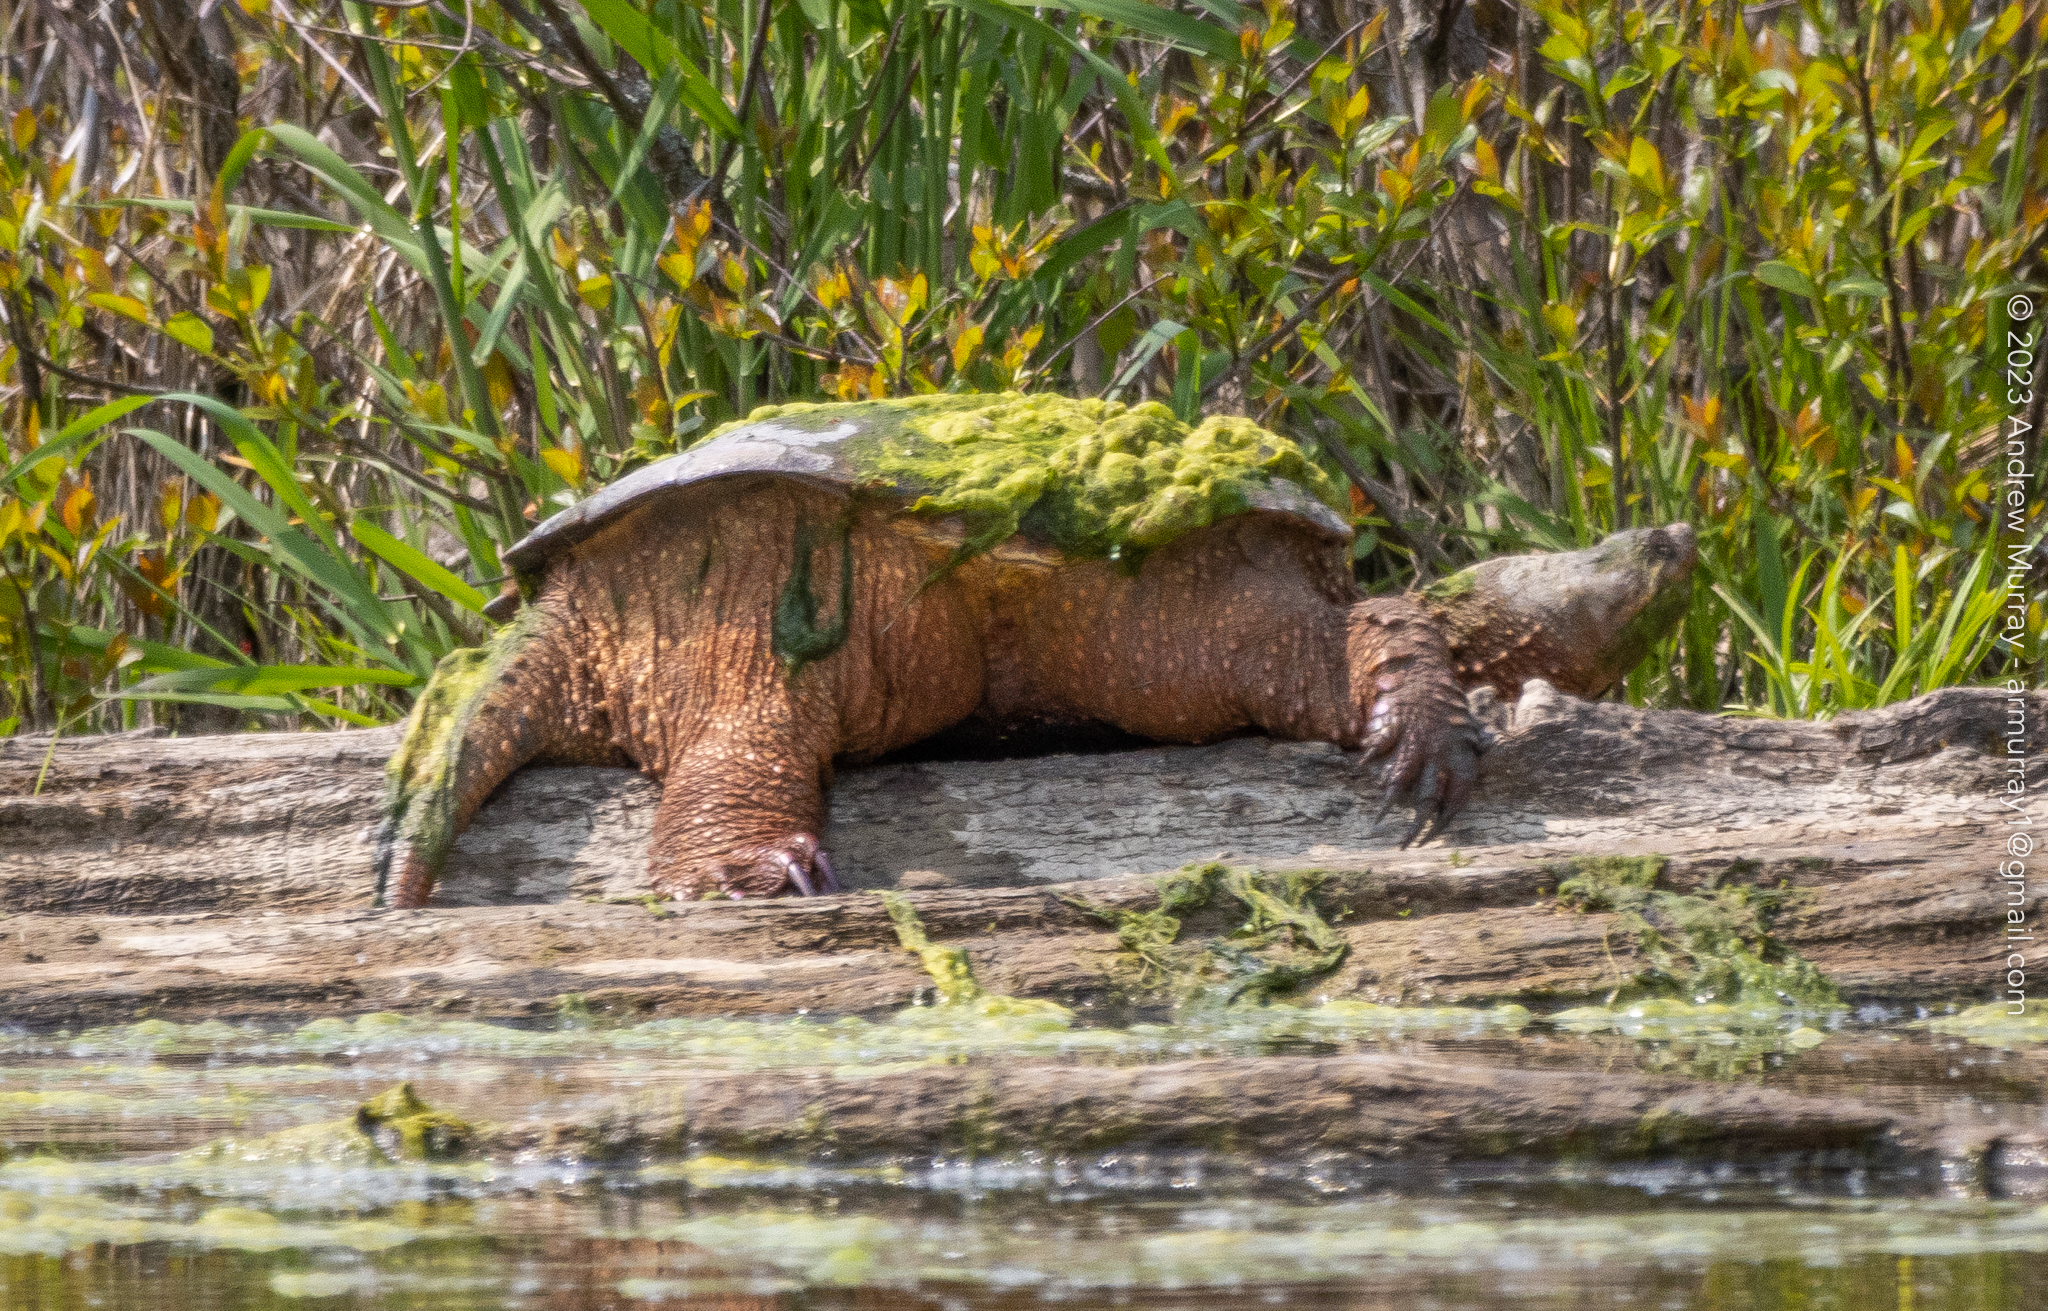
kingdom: Animalia
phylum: Chordata
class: Testudines
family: Chelydridae
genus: Chelydra
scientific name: Chelydra serpentina
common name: Common snapping turtle
